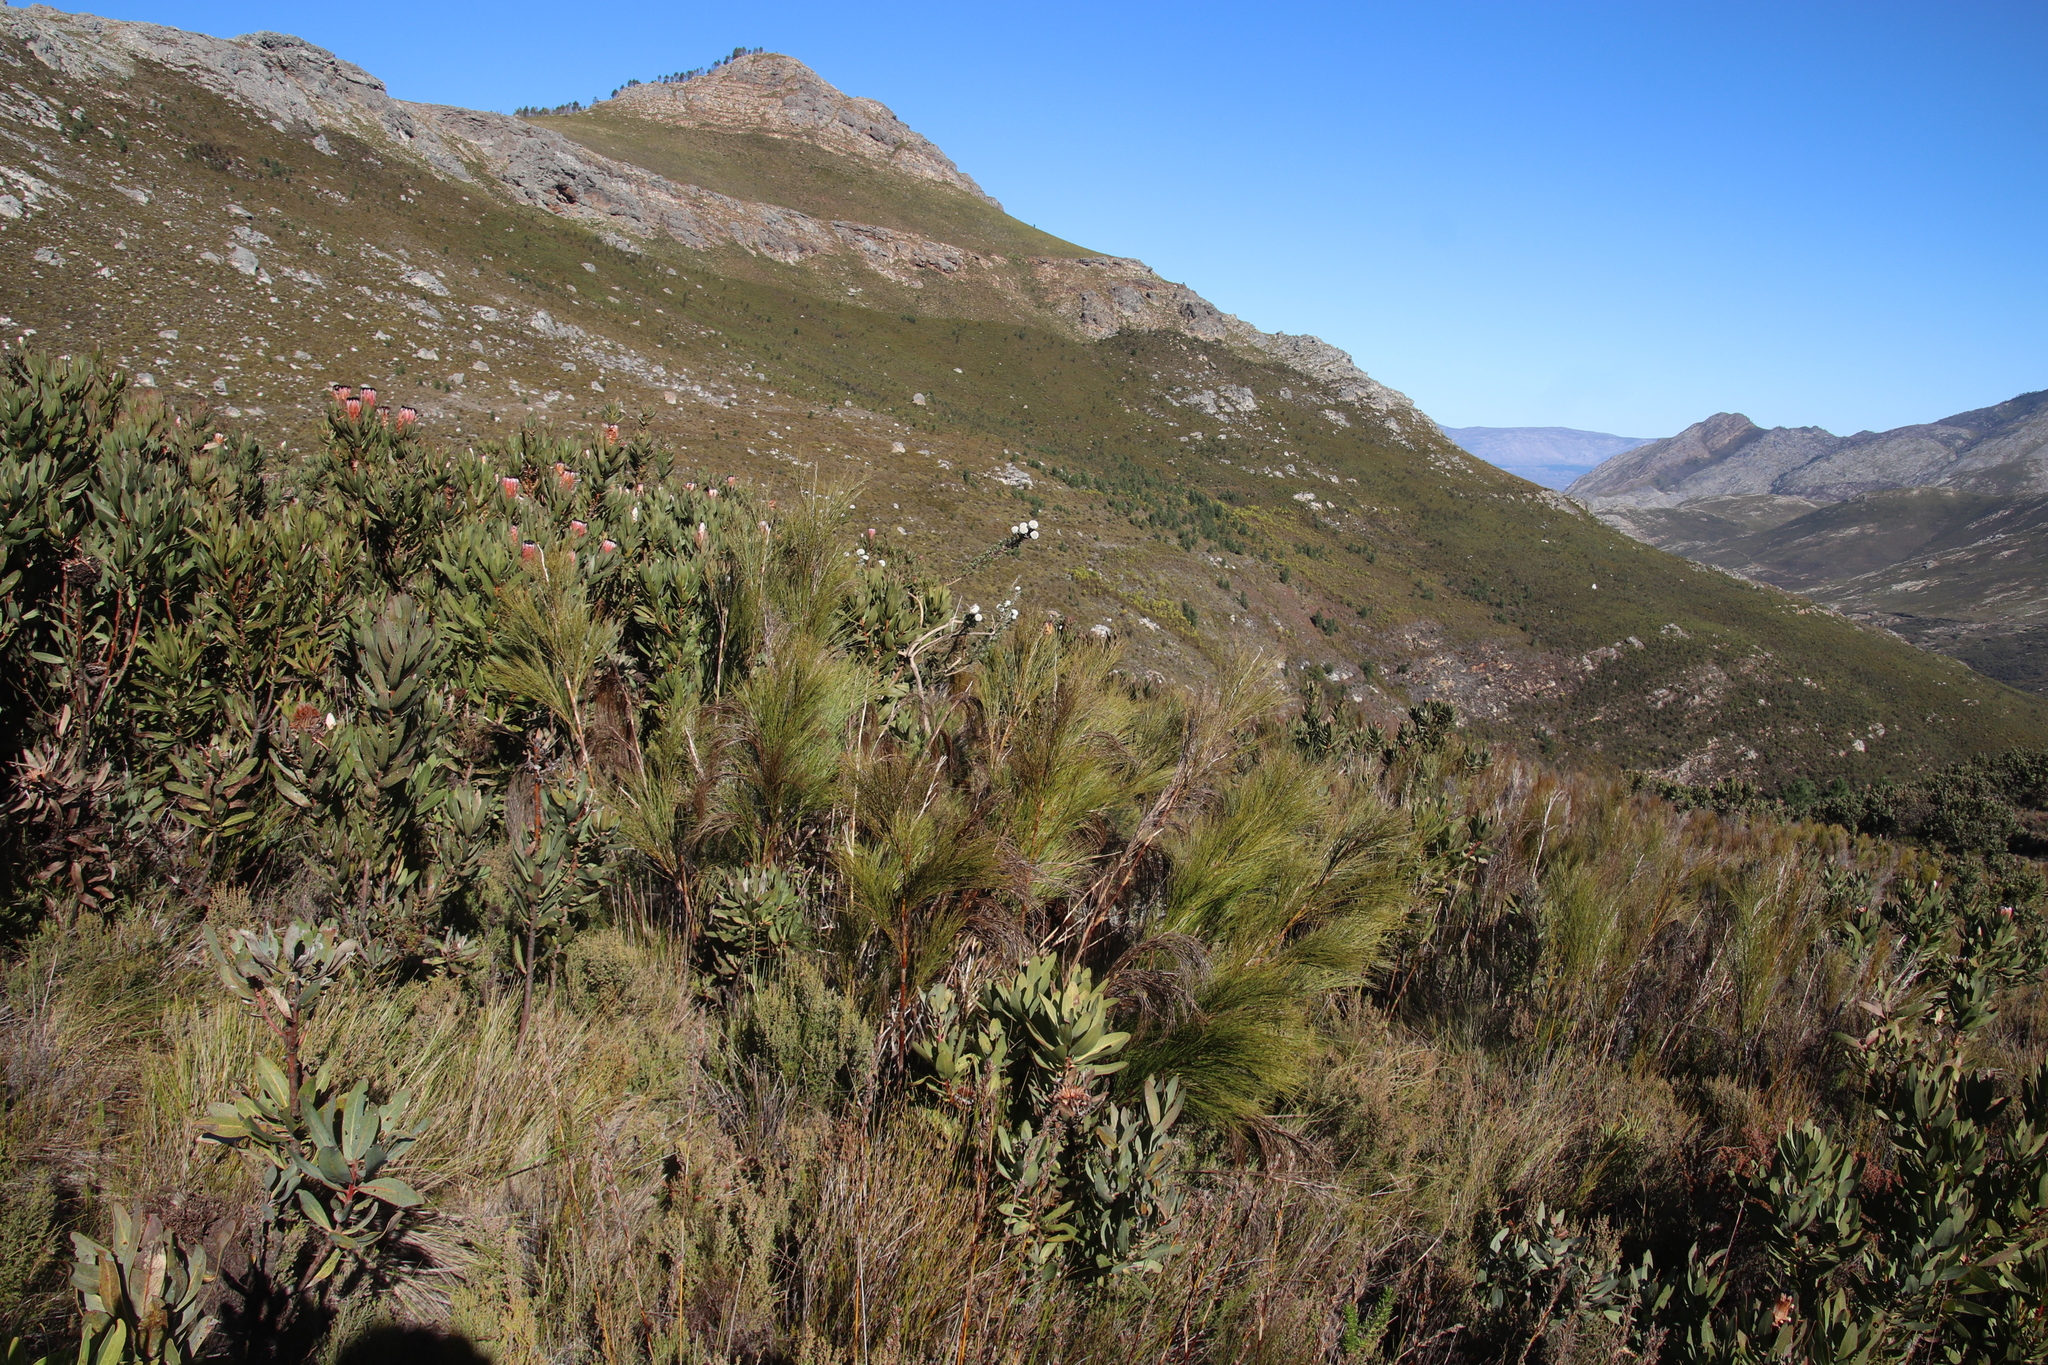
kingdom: Plantae
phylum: Tracheophyta
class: Liliopsida
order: Poales
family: Restionaceae
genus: Cannomois
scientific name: Cannomois virgata
